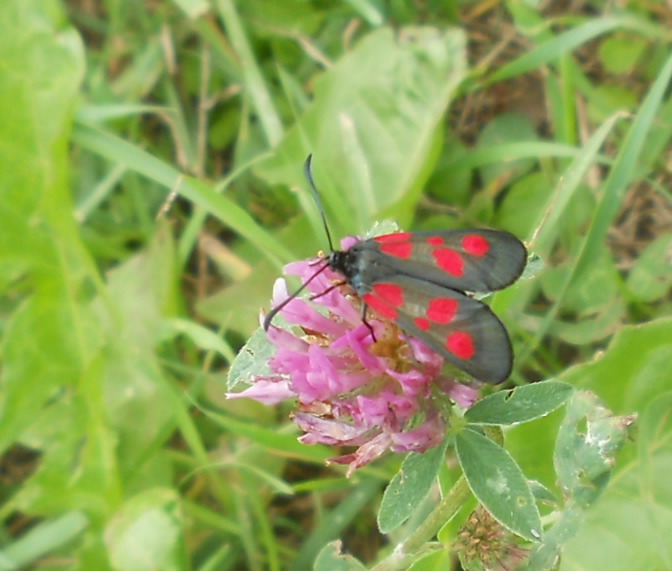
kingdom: Animalia
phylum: Arthropoda
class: Insecta
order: Lepidoptera
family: Zygaenidae
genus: Zygaena
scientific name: Zygaena viciae
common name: New forest burnet
